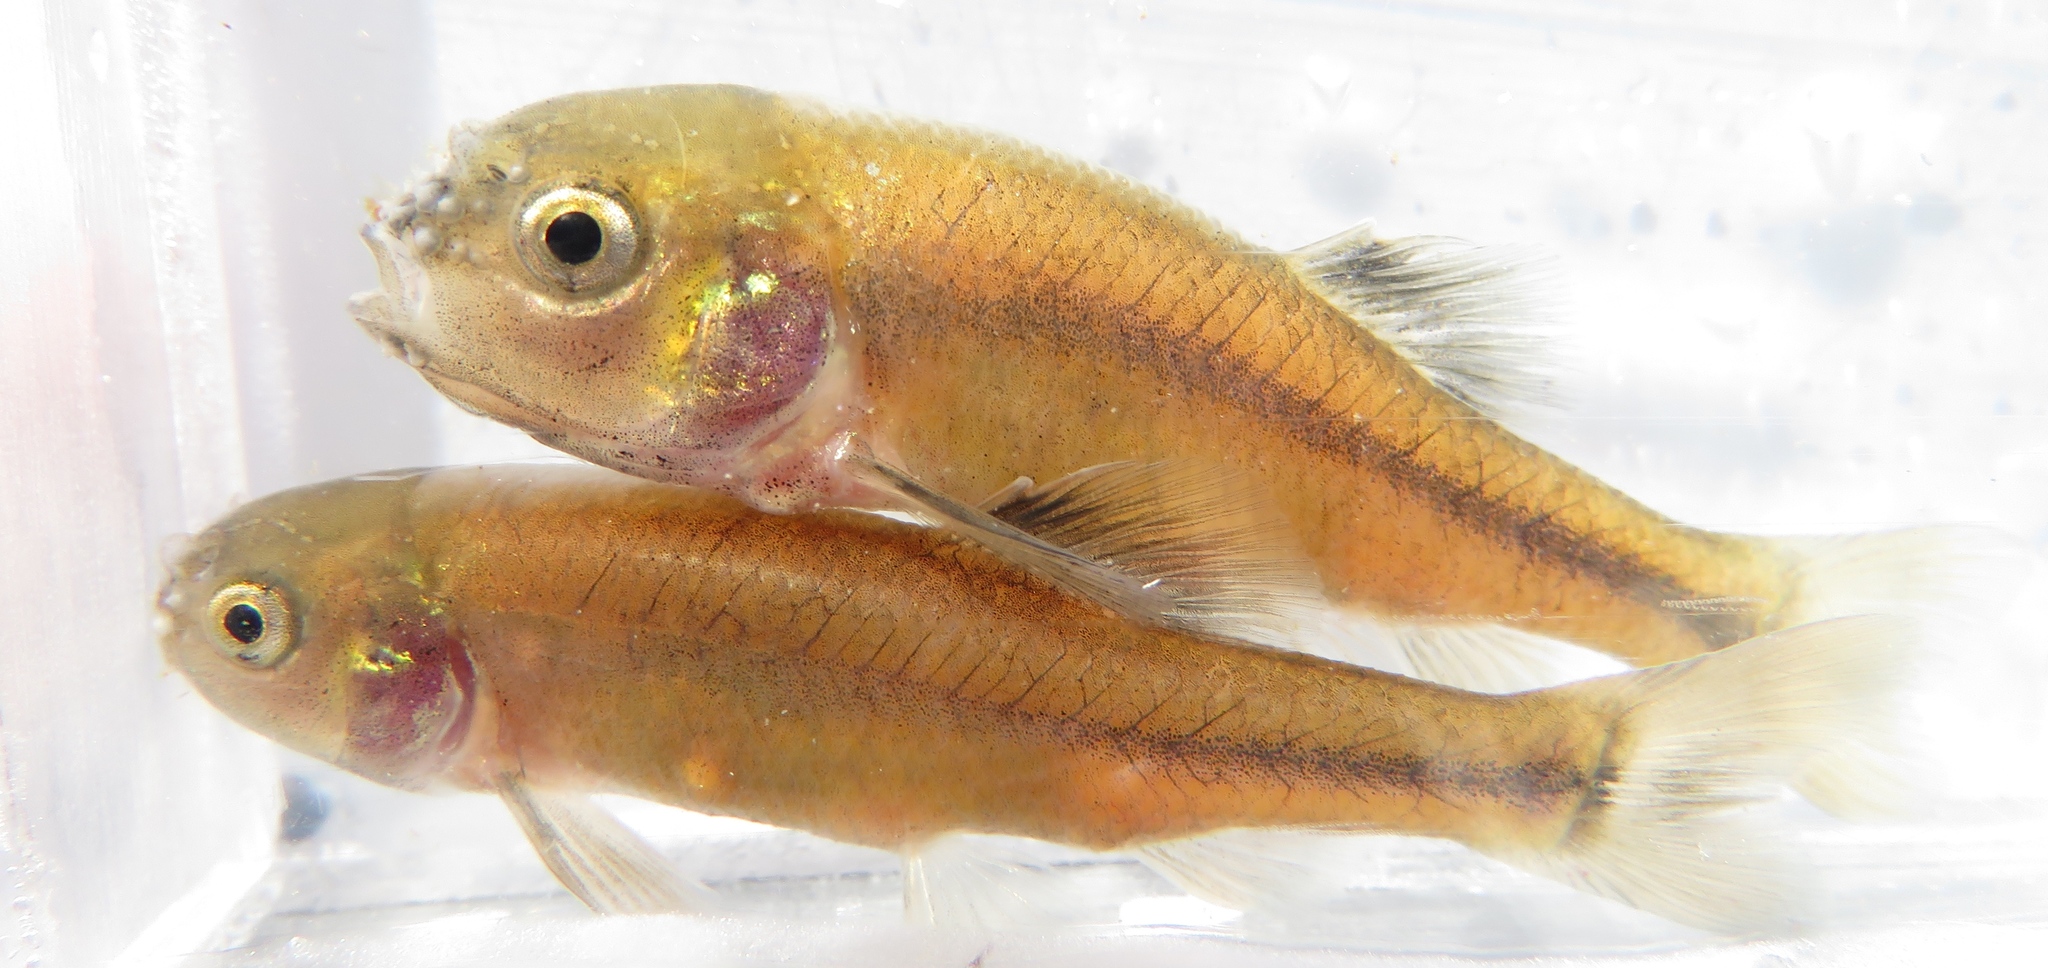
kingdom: Animalia
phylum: Chordata
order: Cypriniformes
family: Cyprinidae
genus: Pimephales
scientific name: Pimephales promelas
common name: Fathead minnow
